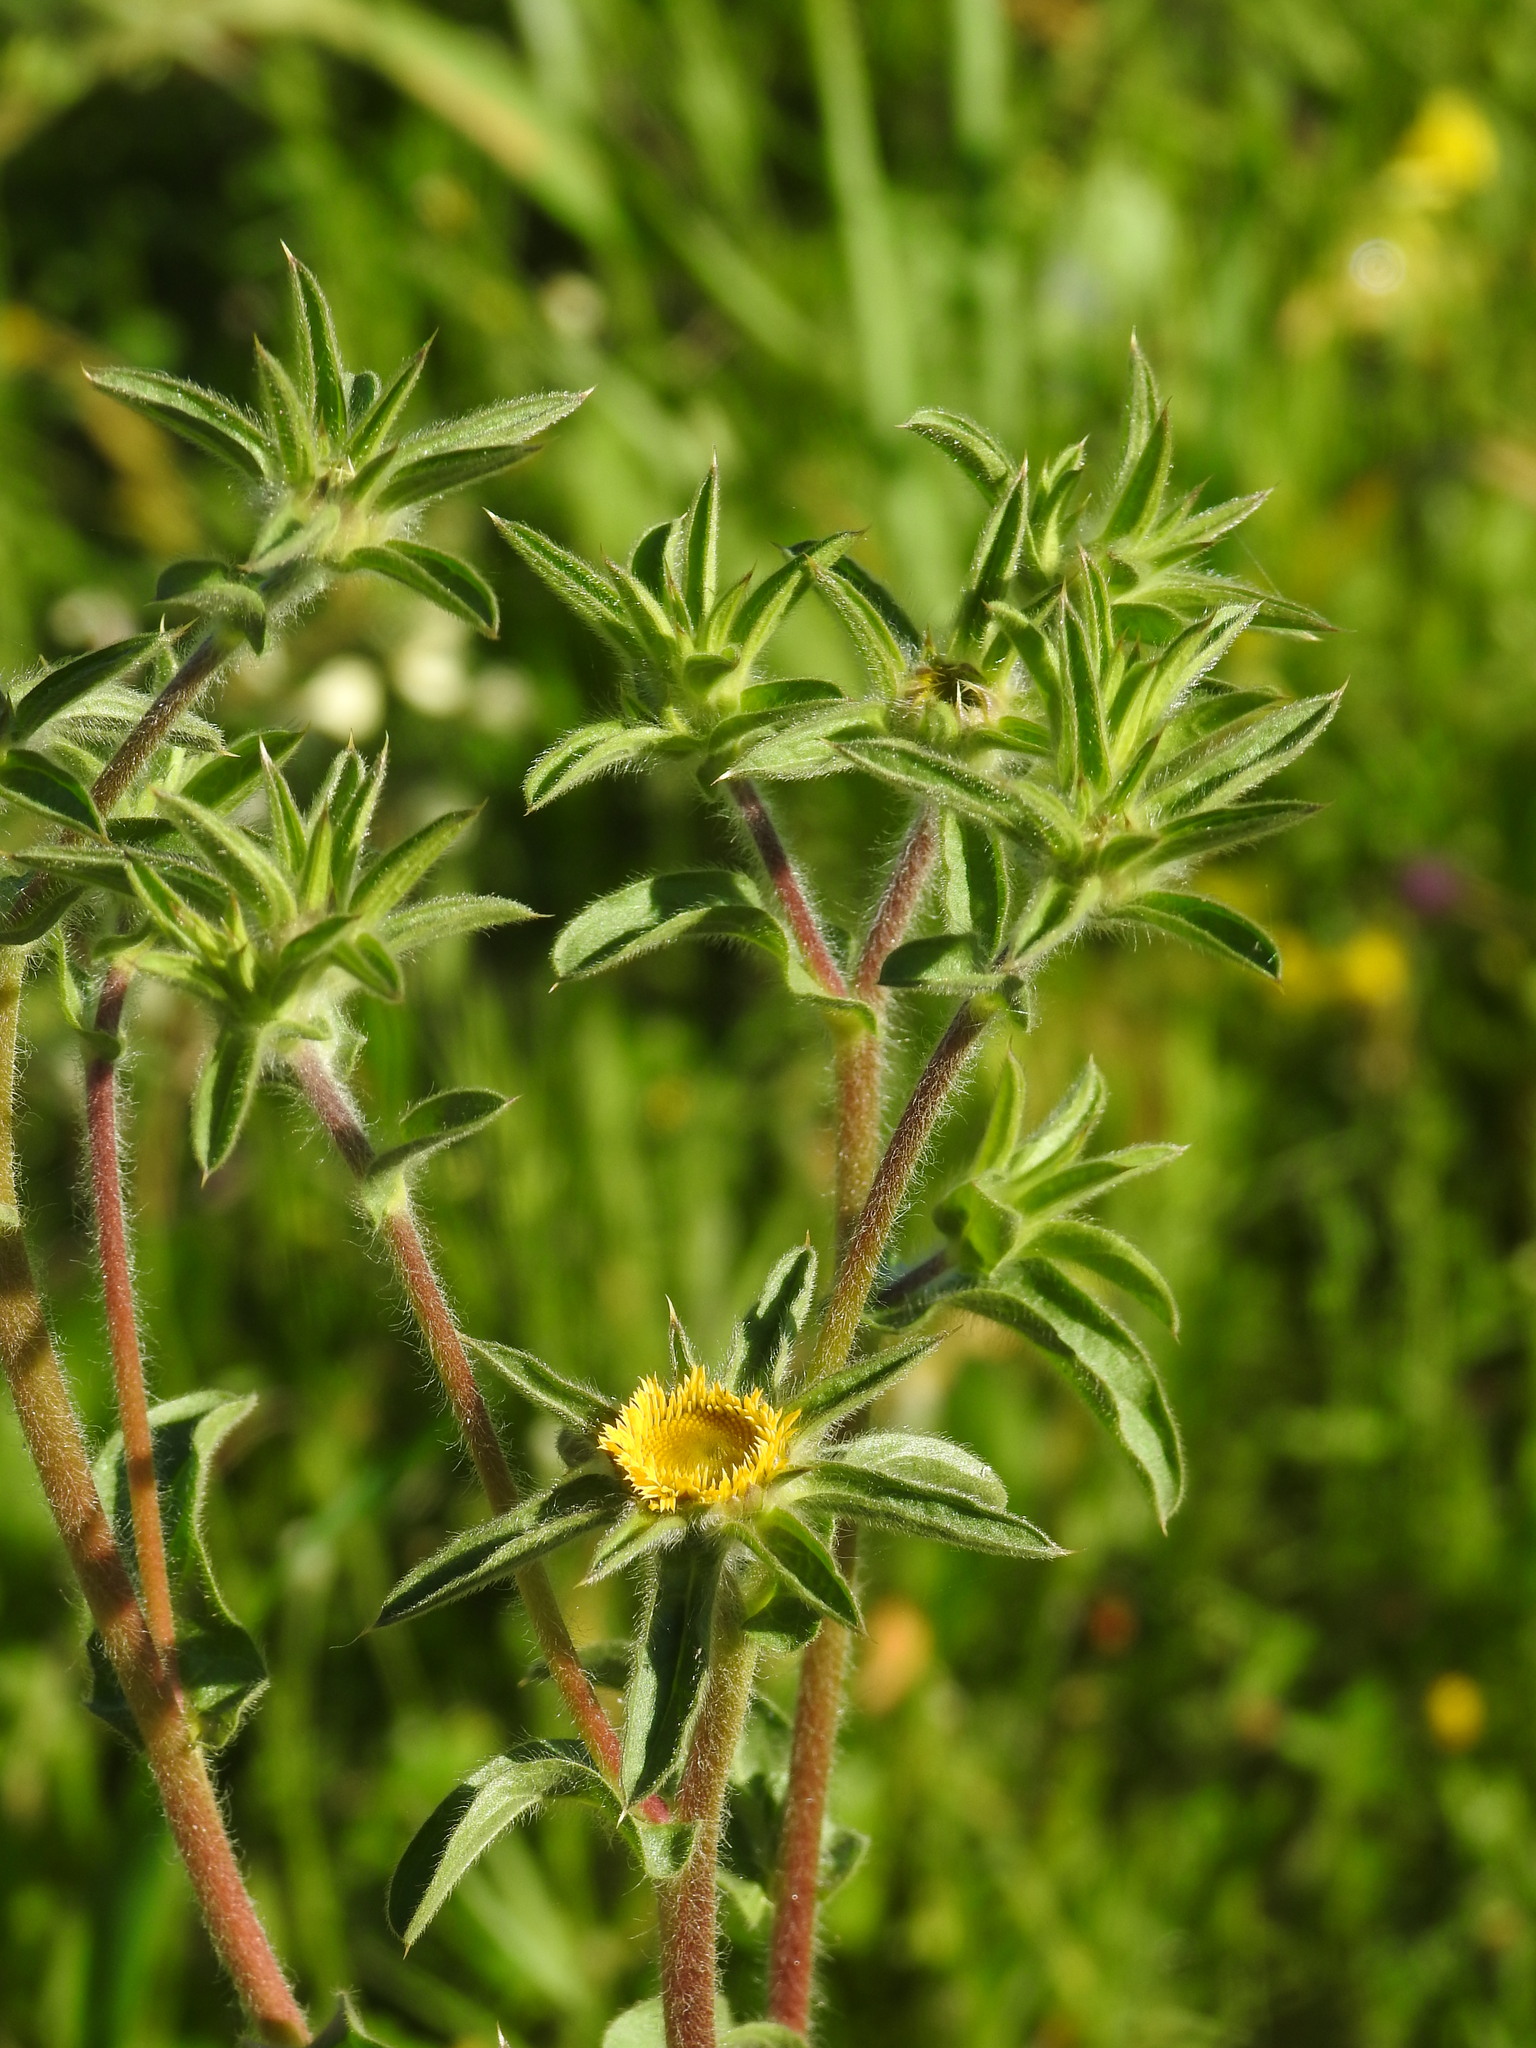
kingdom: Plantae
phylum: Tracheophyta
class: Magnoliopsida
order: Asterales
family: Asteraceae
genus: Pallenis
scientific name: Pallenis spinosa
